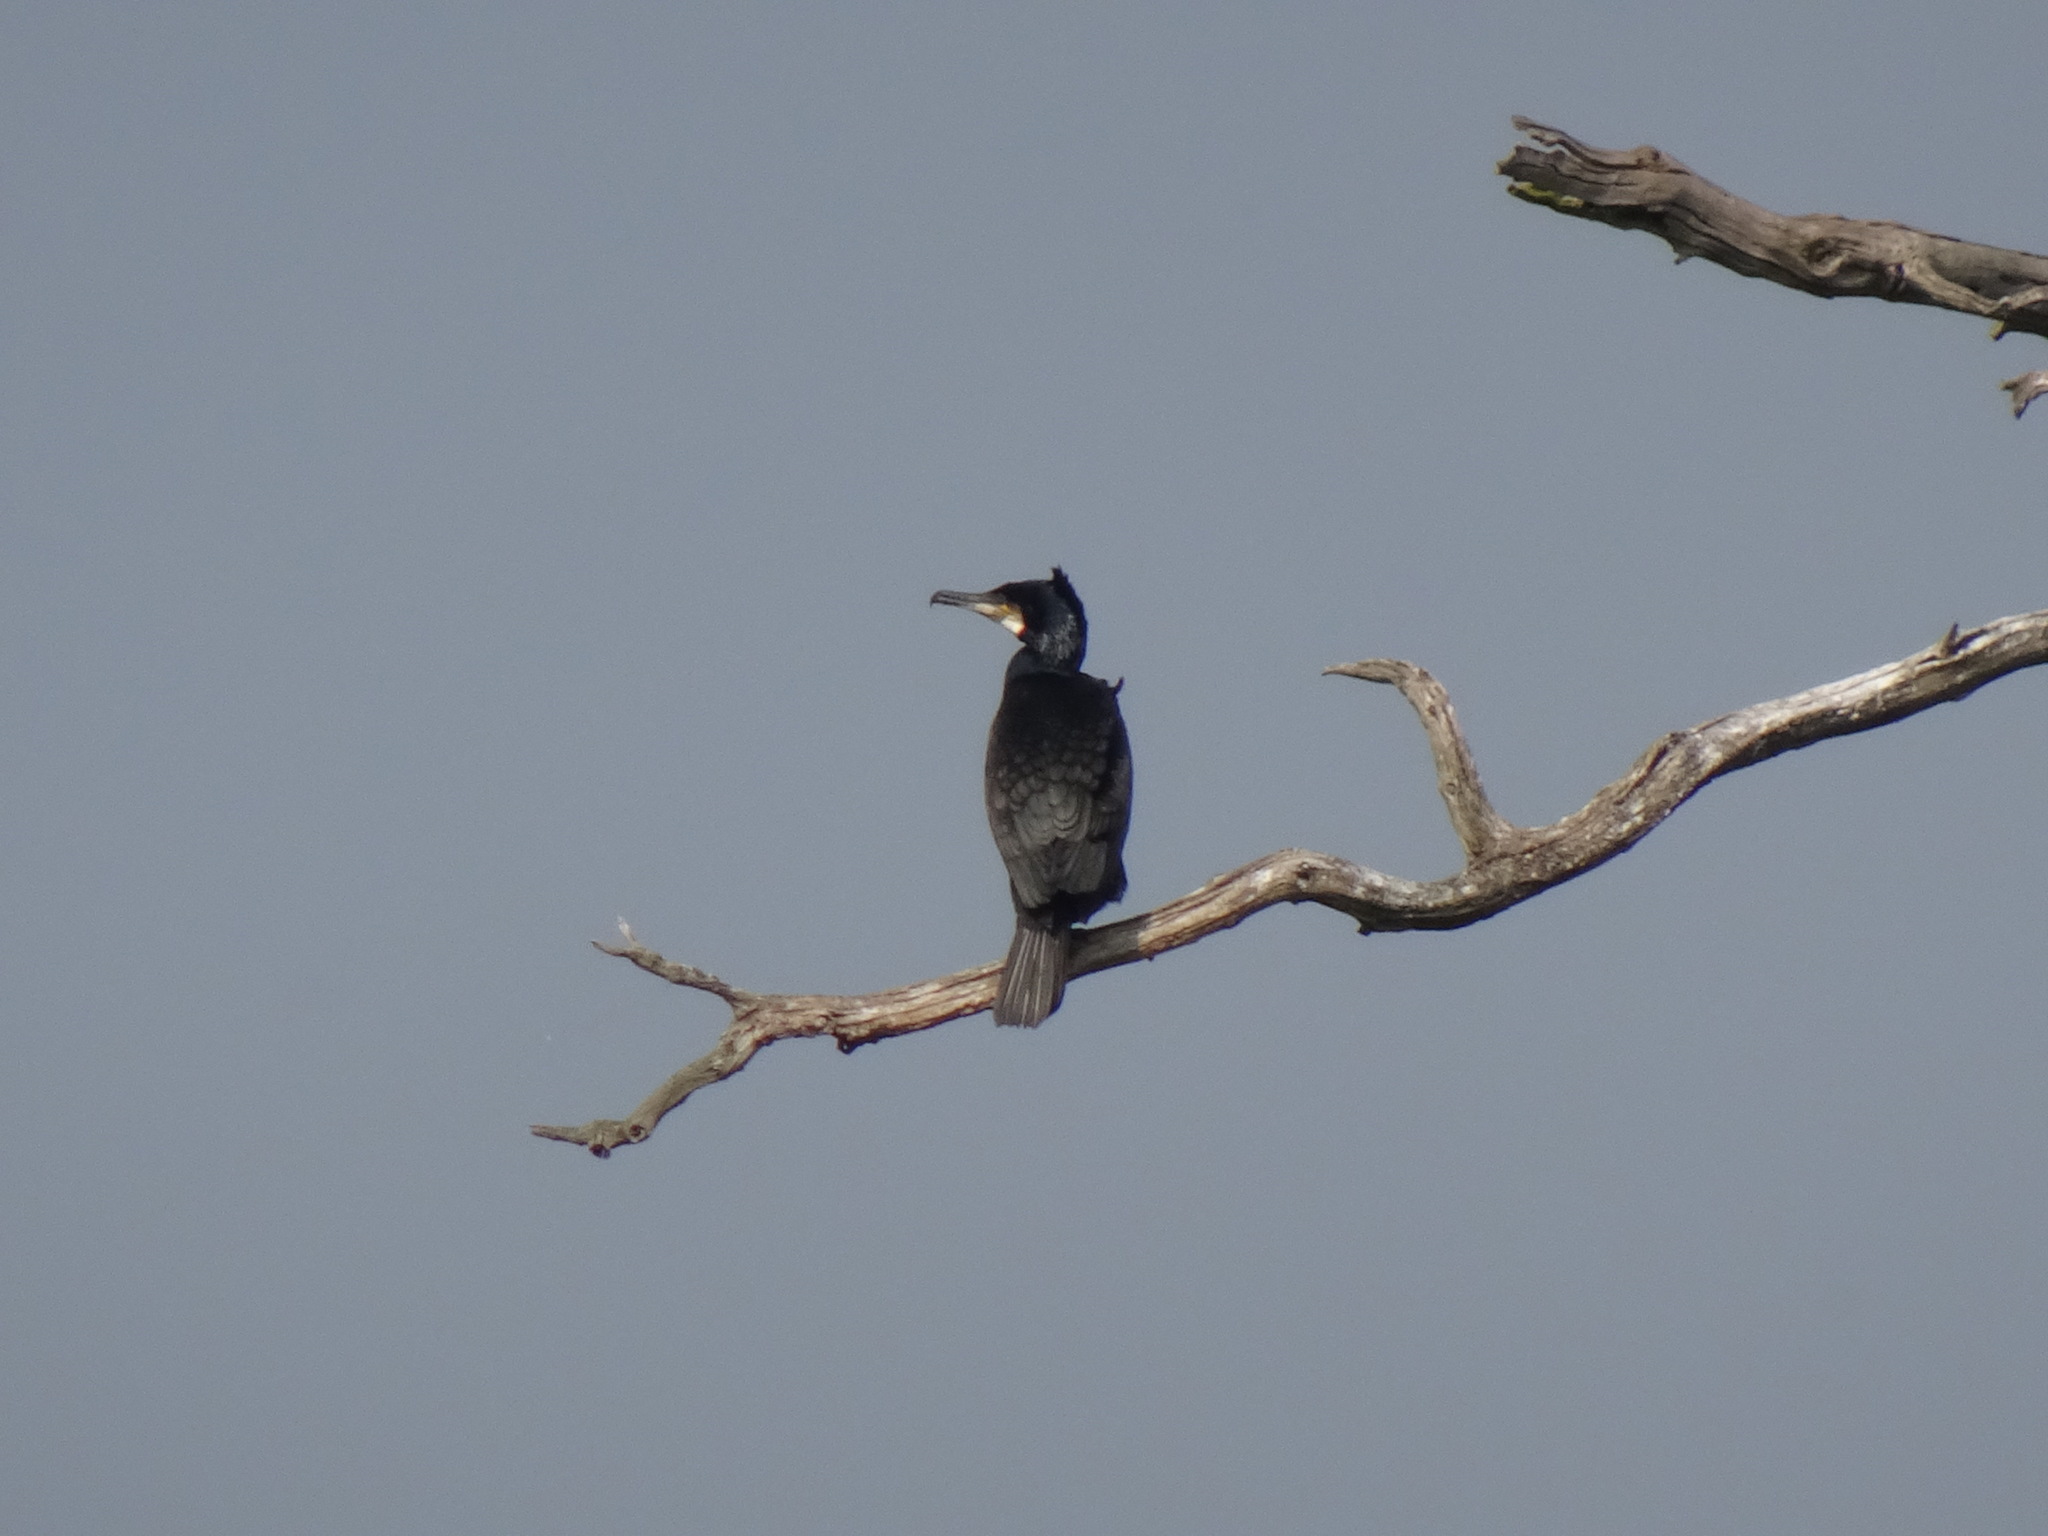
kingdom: Animalia
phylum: Chordata
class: Aves
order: Suliformes
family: Phalacrocoracidae
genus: Phalacrocorax
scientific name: Phalacrocorax carbo
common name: Great cormorant
